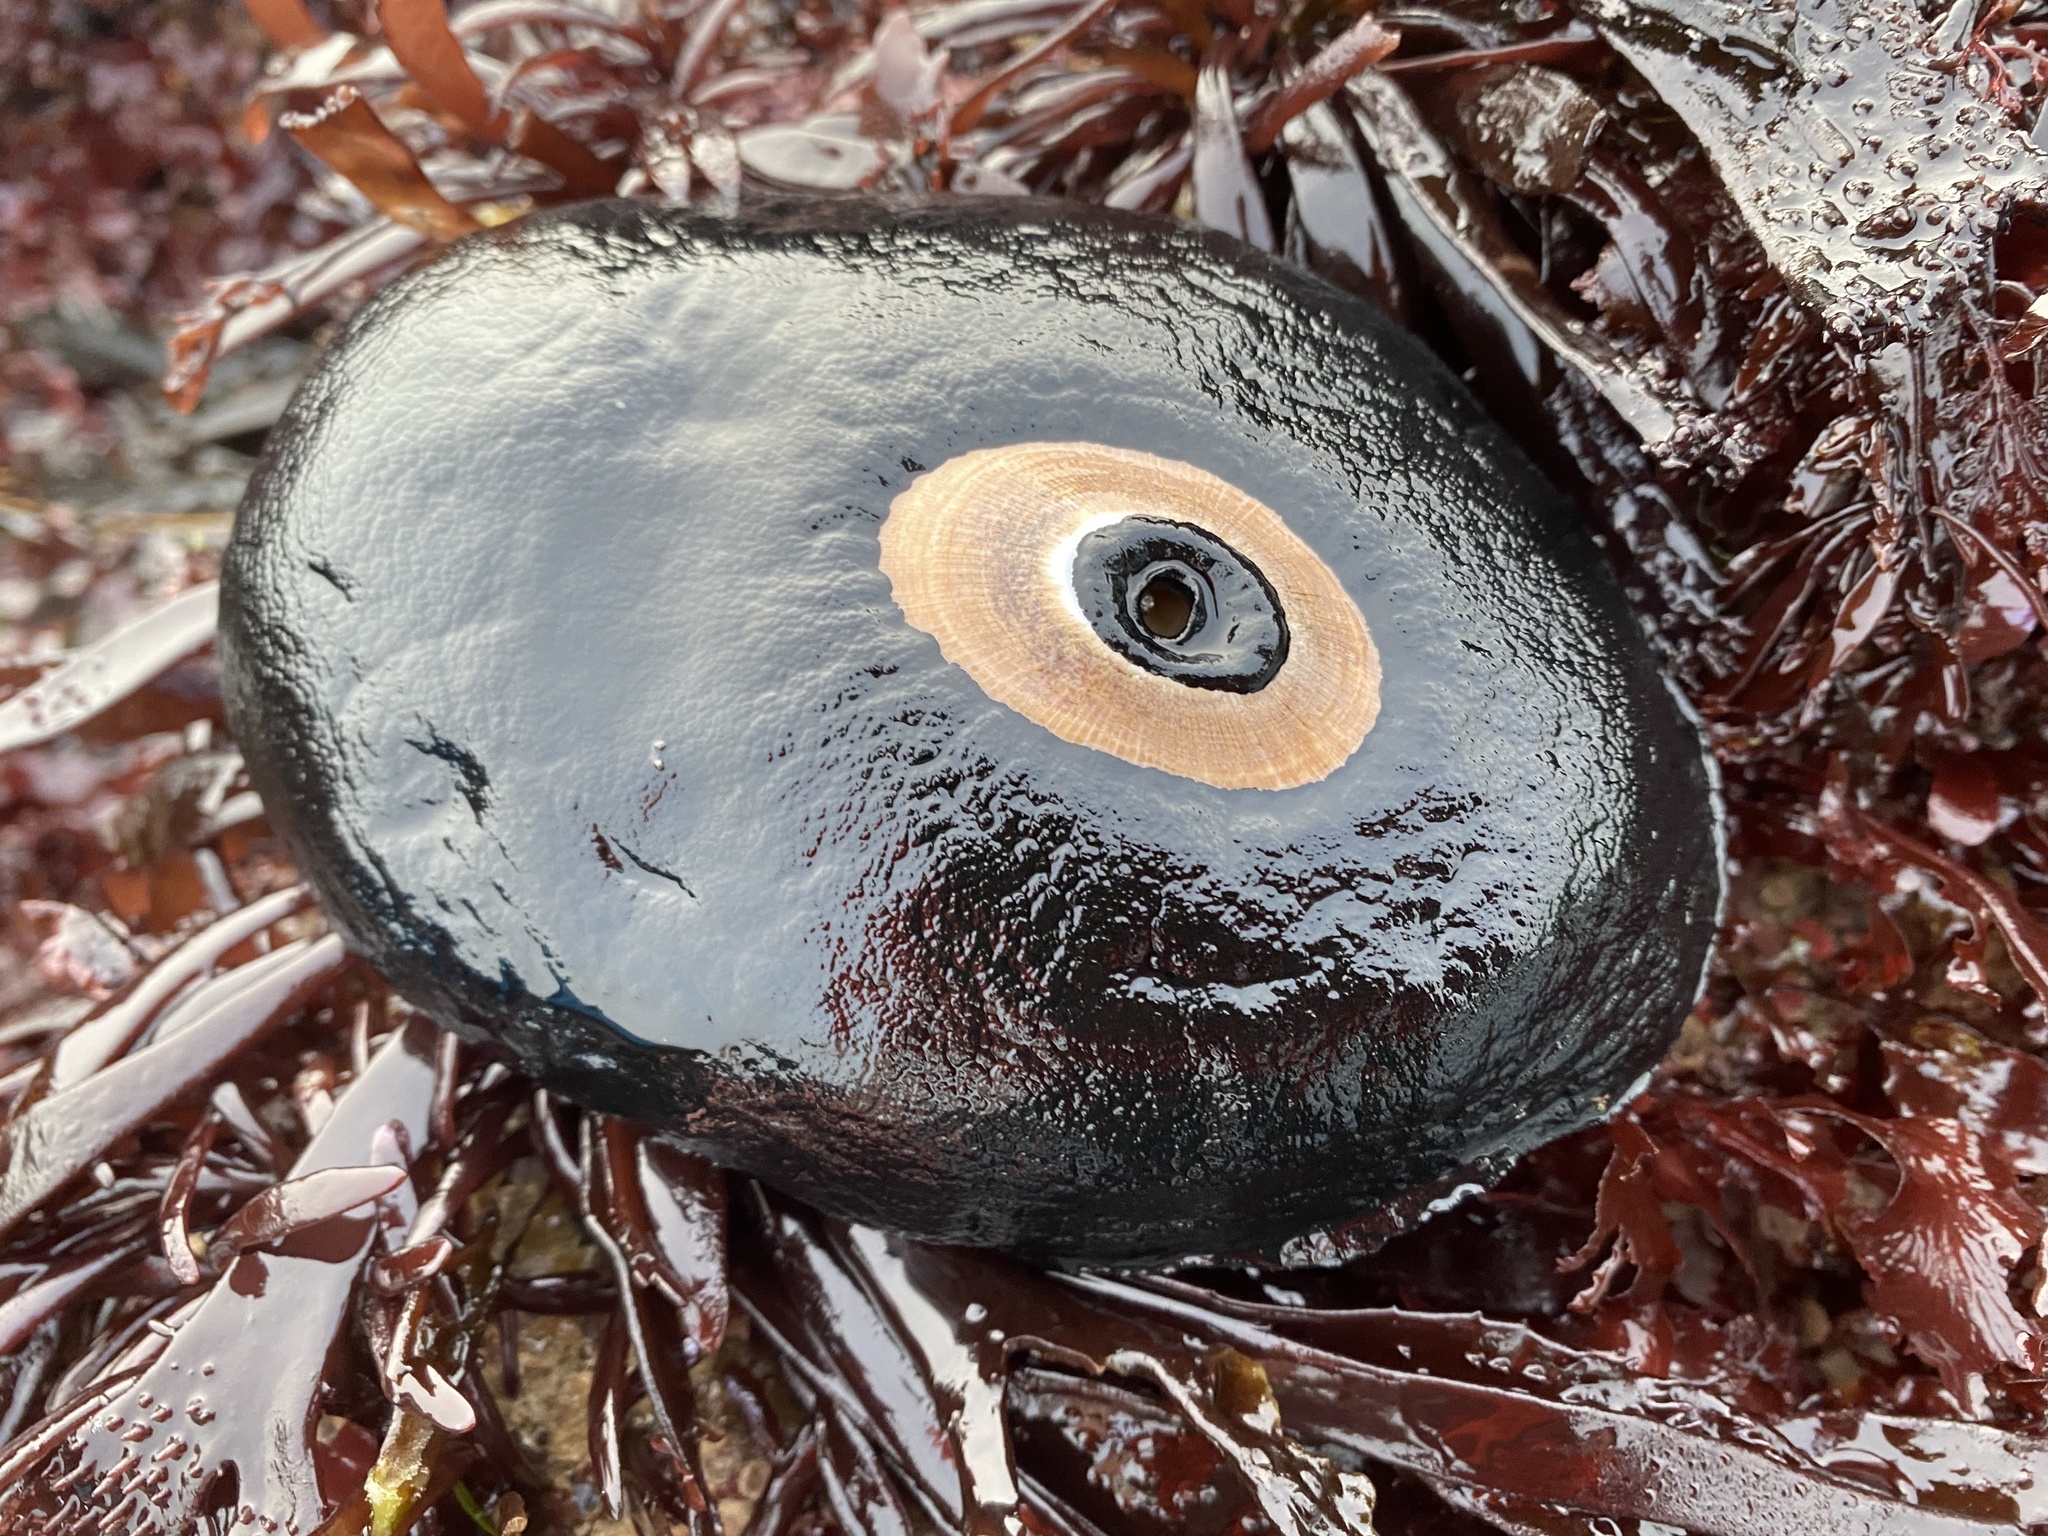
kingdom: Animalia
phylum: Mollusca
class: Gastropoda
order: Lepetellida
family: Fissurellidae
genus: Megathura
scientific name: Megathura crenulata
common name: Giant keyhole limpet
